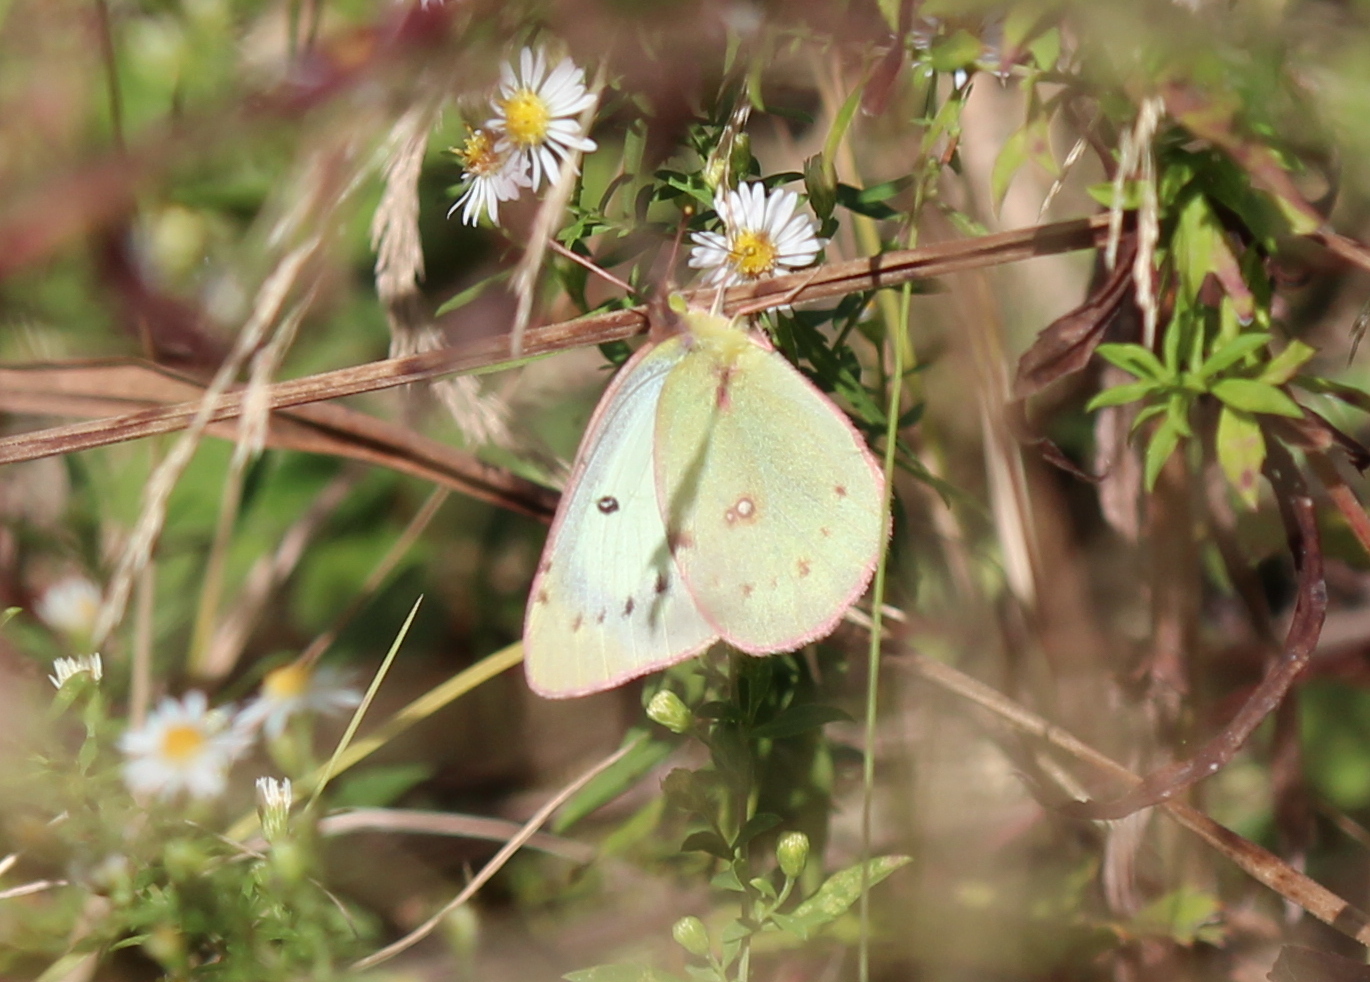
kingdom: Animalia
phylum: Arthropoda
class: Insecta
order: Lepidoptera
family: Pieridae
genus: Colias
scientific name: Colias philodice
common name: Clouded sulphur
